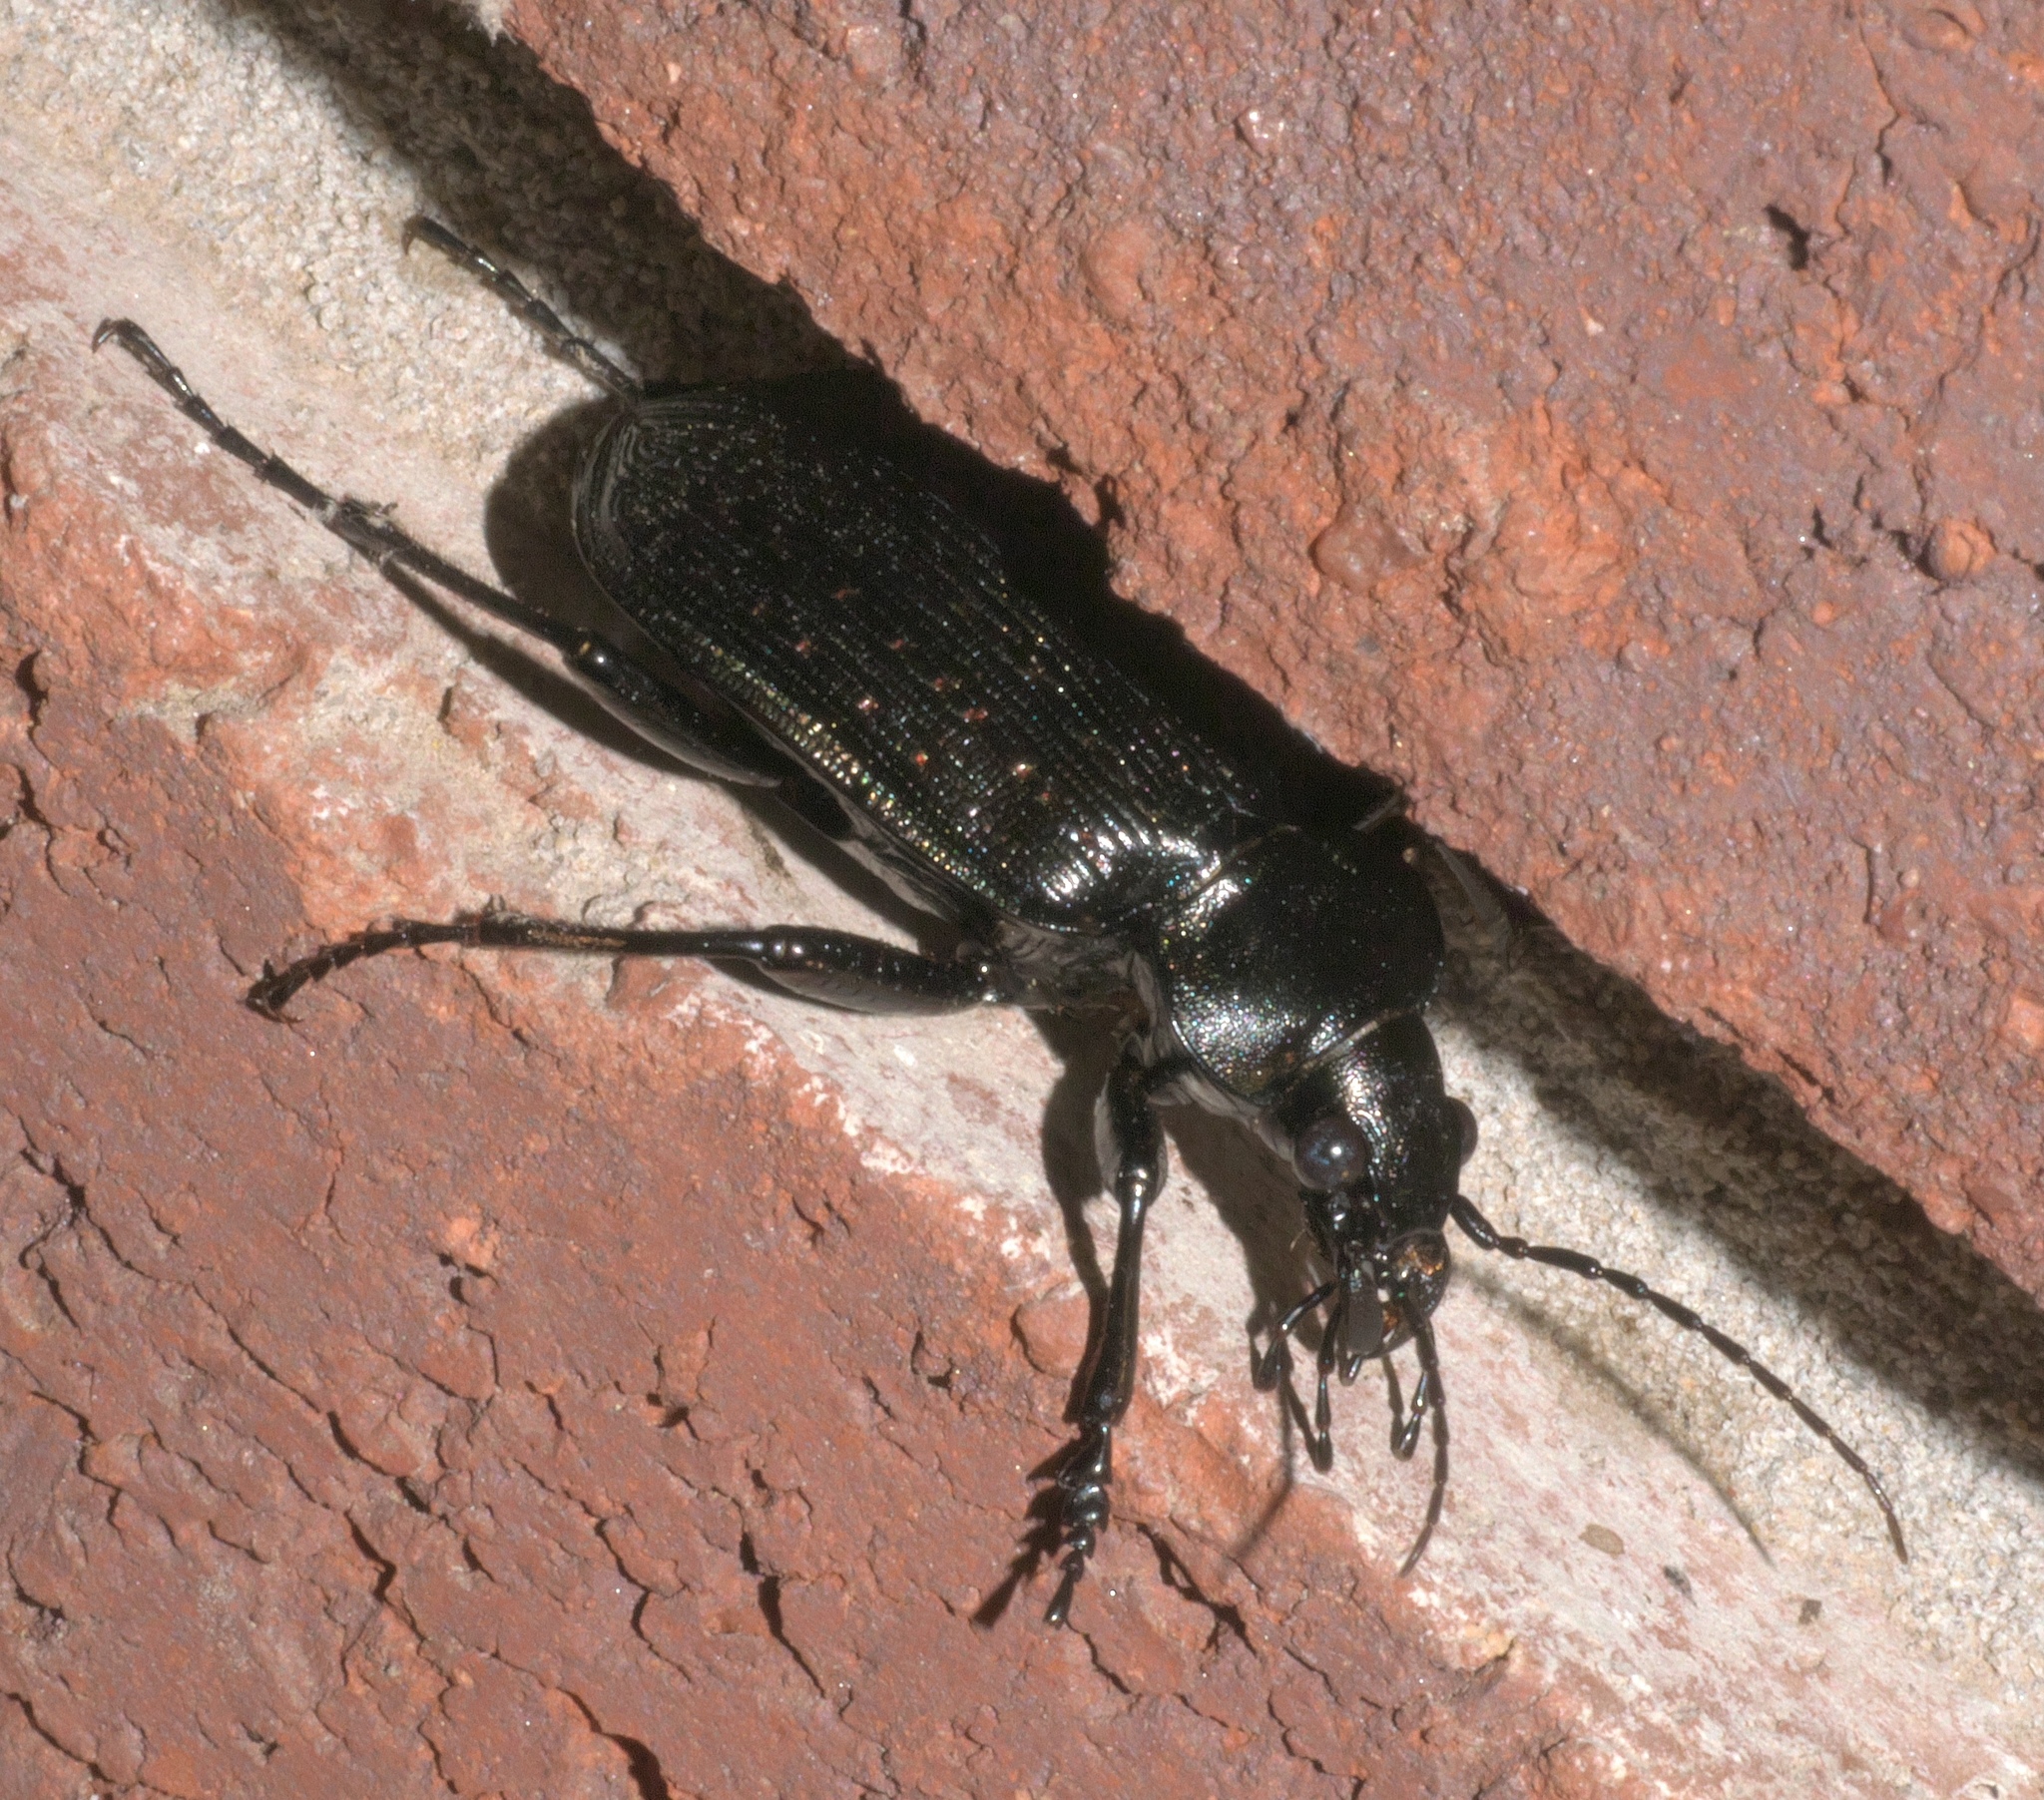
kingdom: Animalia
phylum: Arthropoda
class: Insecta
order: Coleoptera
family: Carabidae
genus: Calosoma
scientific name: Calosoma sayi
